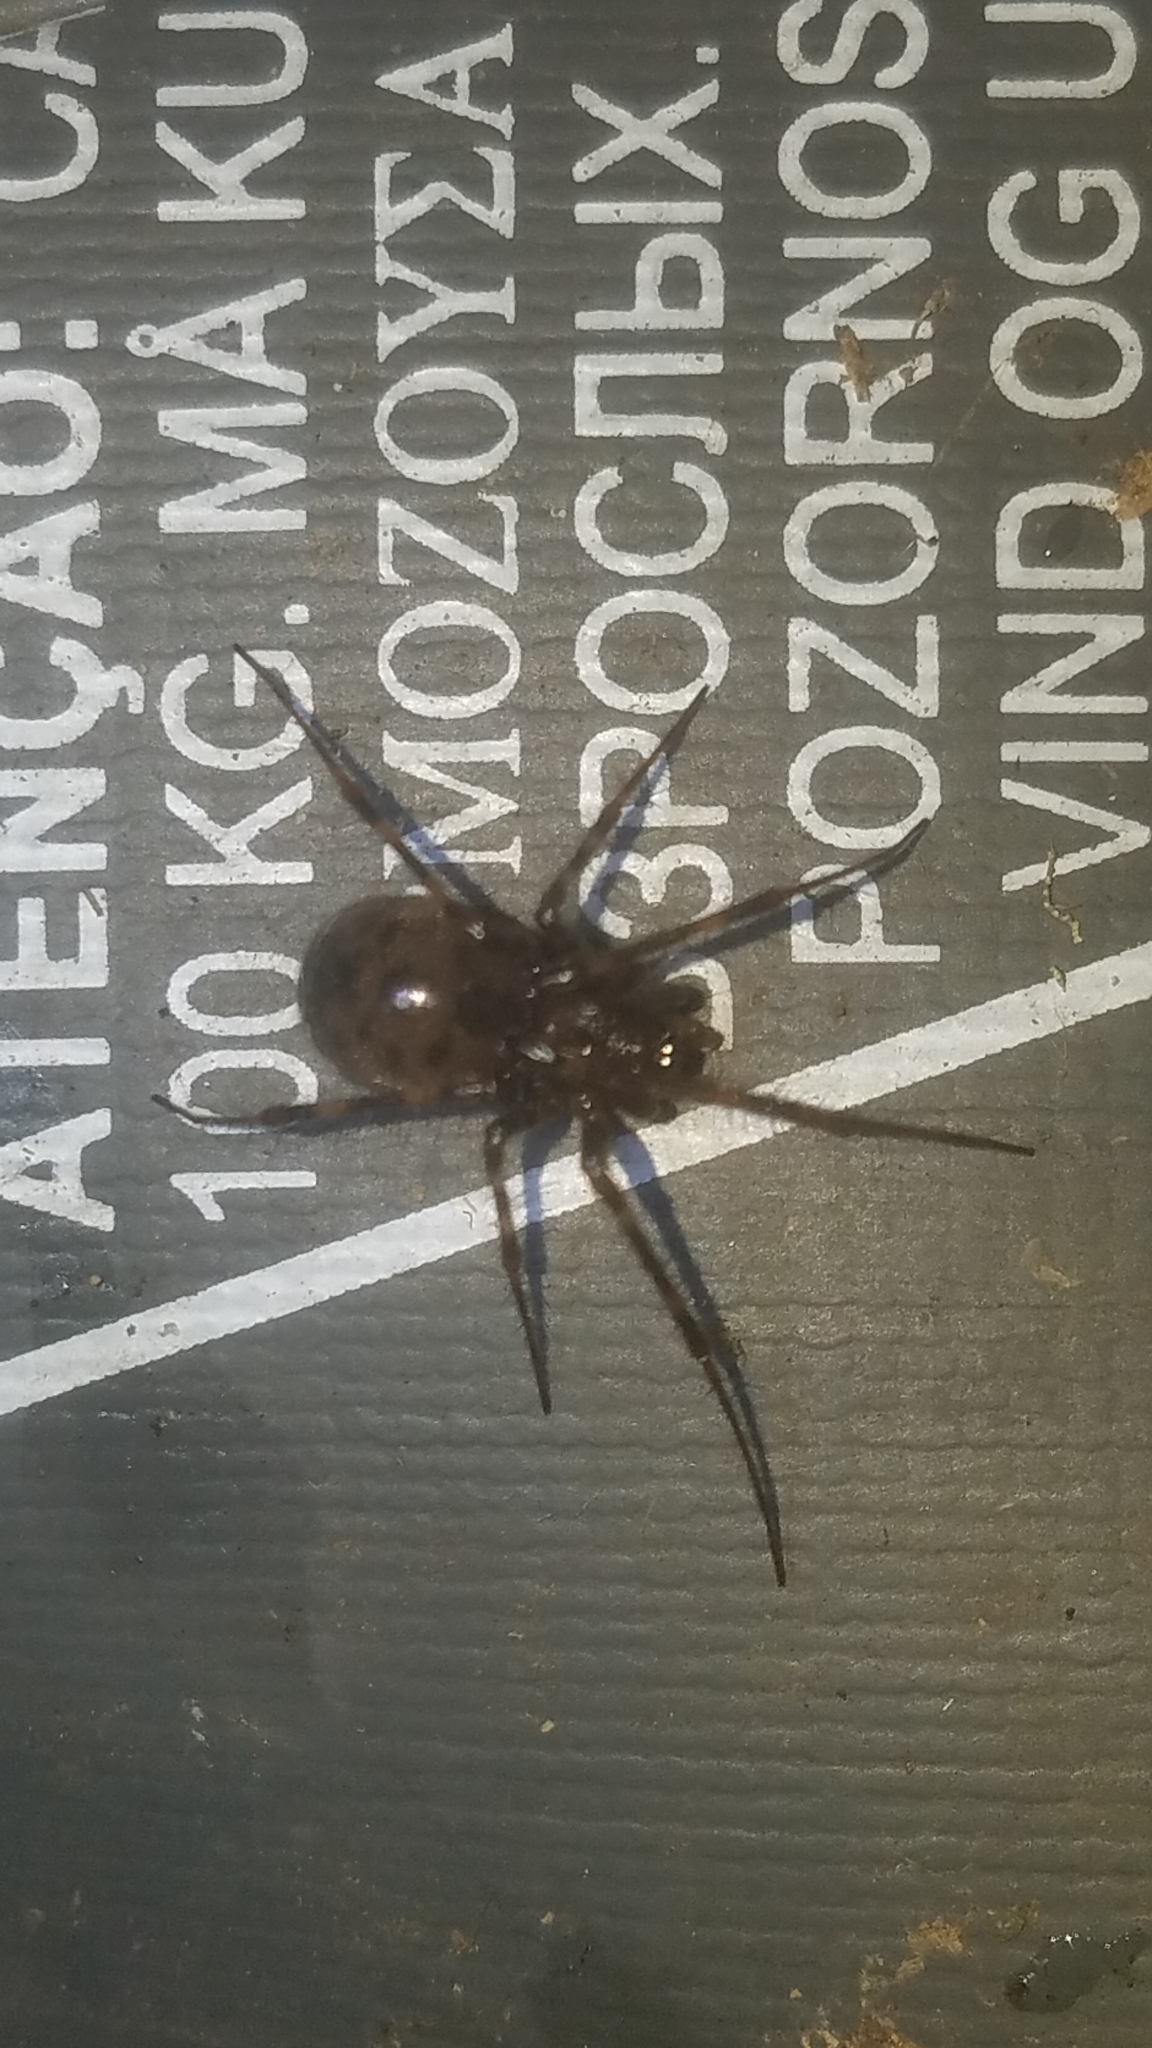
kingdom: Animalia
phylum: Arthropoda
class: Arachnida
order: Araneae
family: Pimoidae
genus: Pimoa
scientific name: Pimoa altioculata
